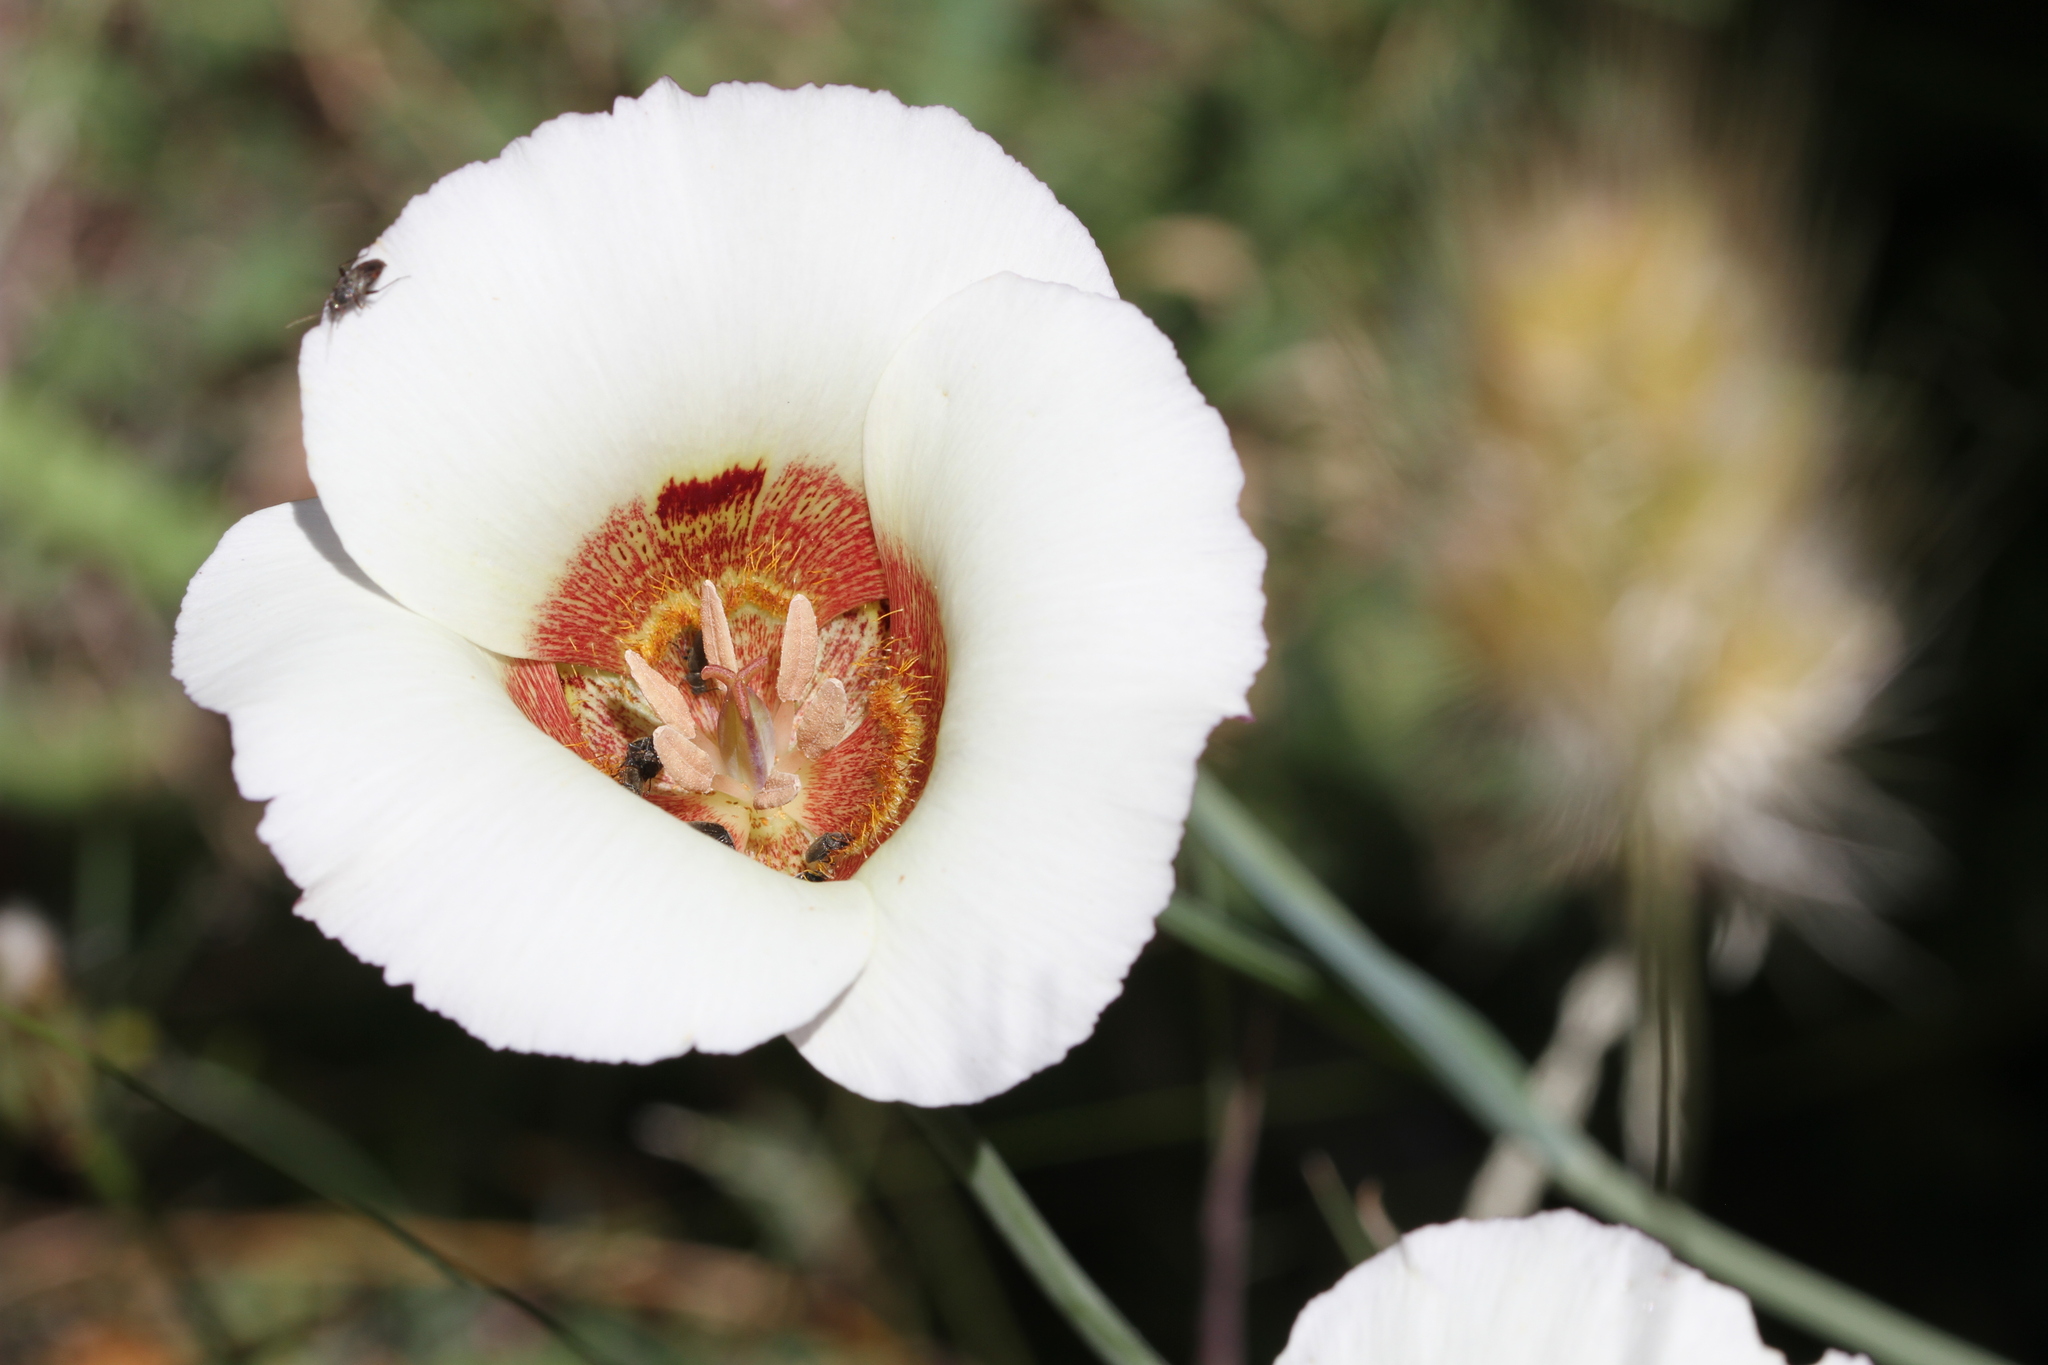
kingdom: Plantae
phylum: Tracheophyta
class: Liliopsida
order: Liliales
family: Liliaceae
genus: Calochortus
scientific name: Calochortus vestae
